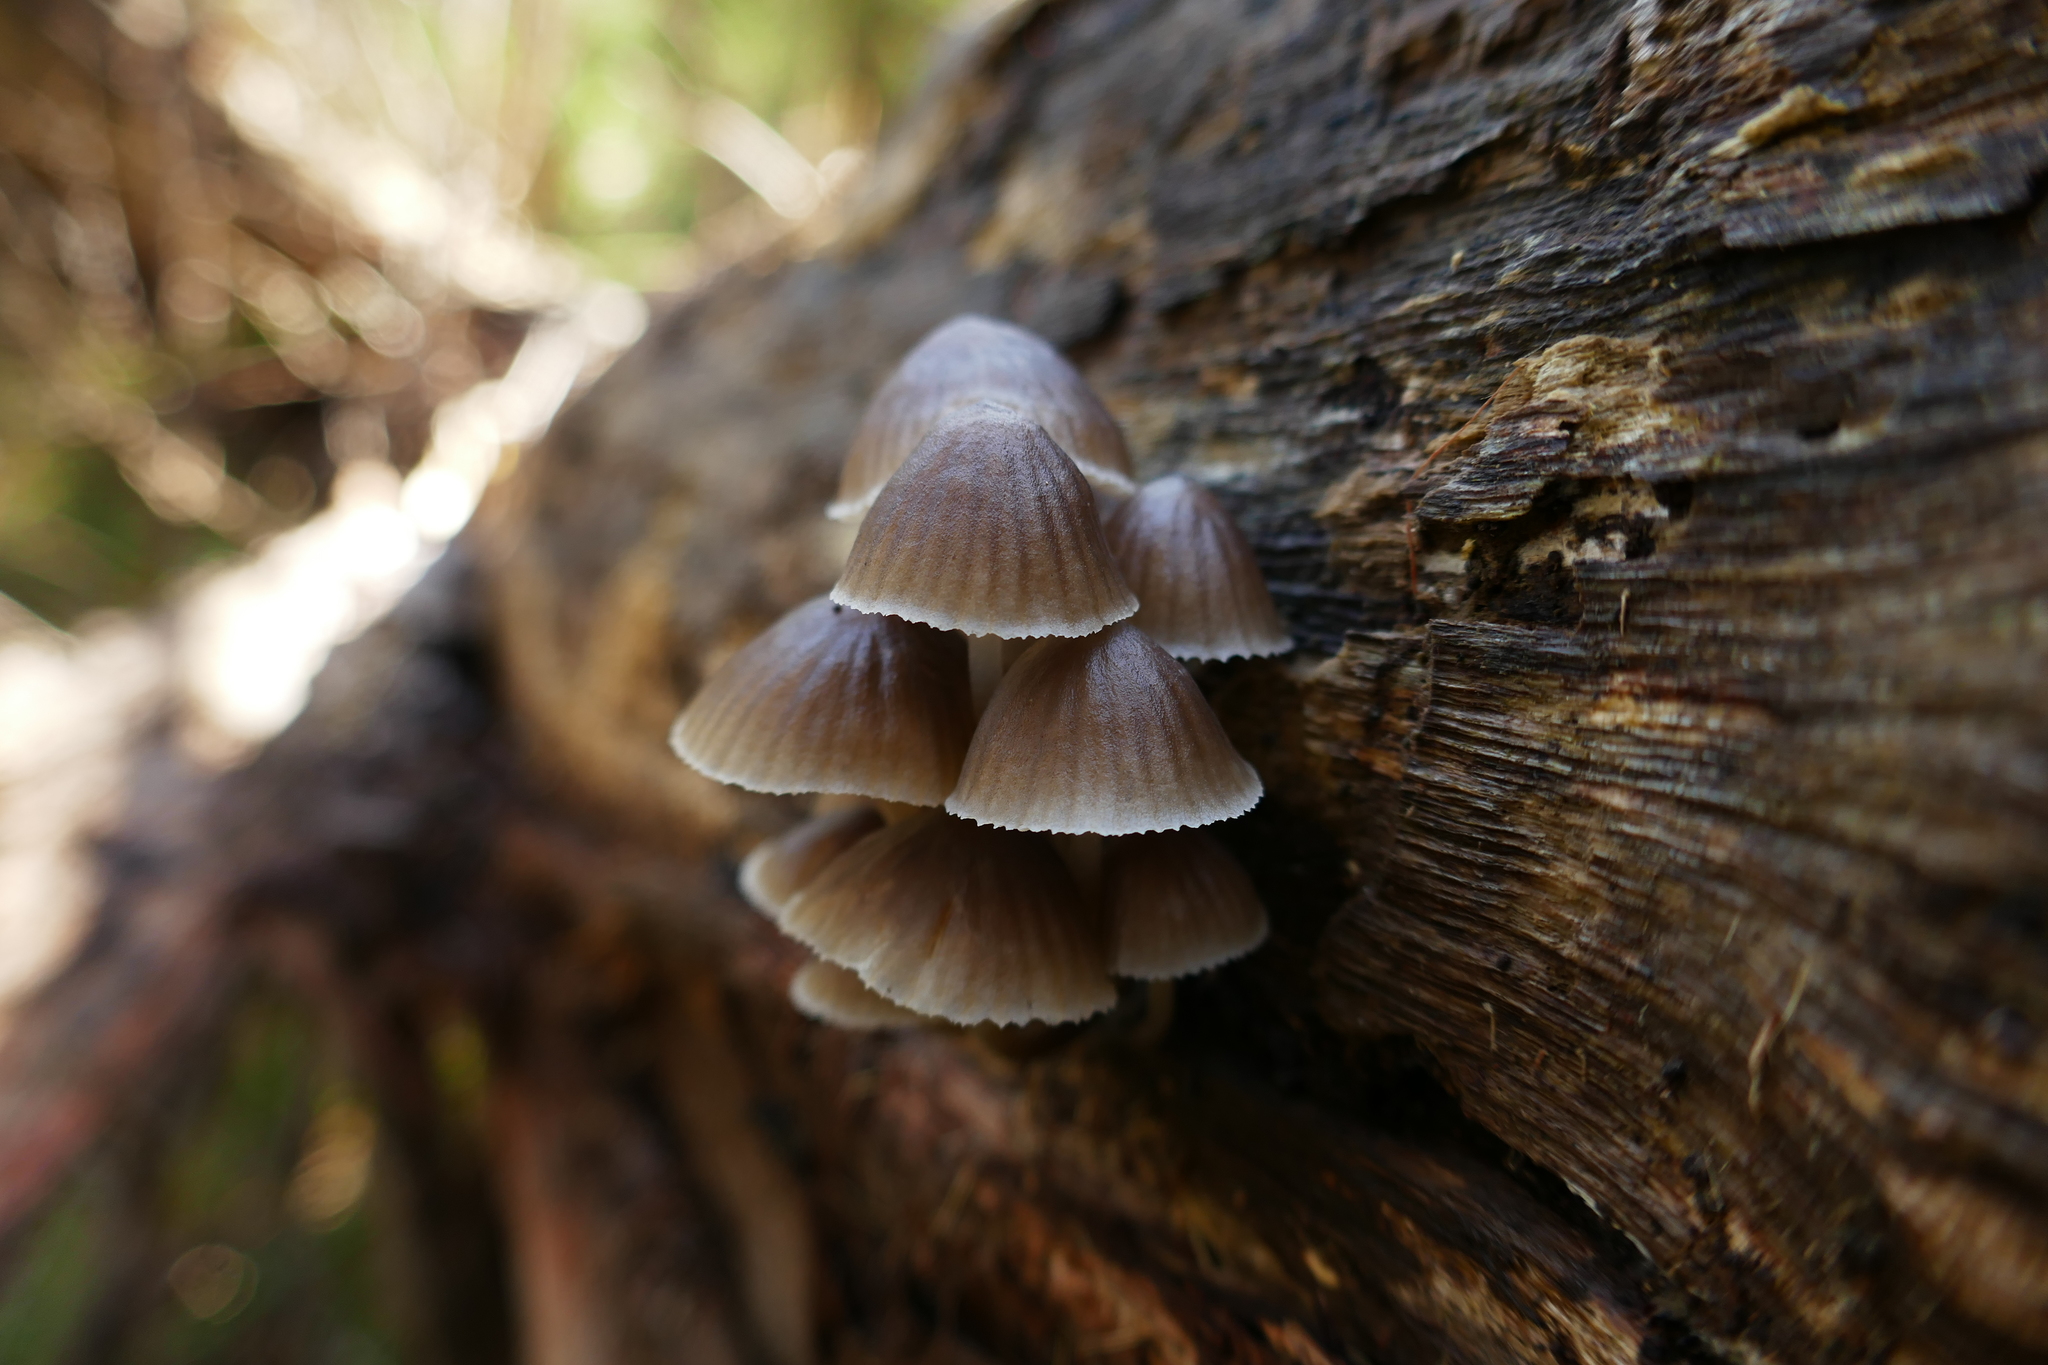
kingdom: Fungi
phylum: Basidiomycota
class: Agaricomycetes
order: Agaricales
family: Mycenaceae
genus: Mycena
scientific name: Mycena subgalericulata
